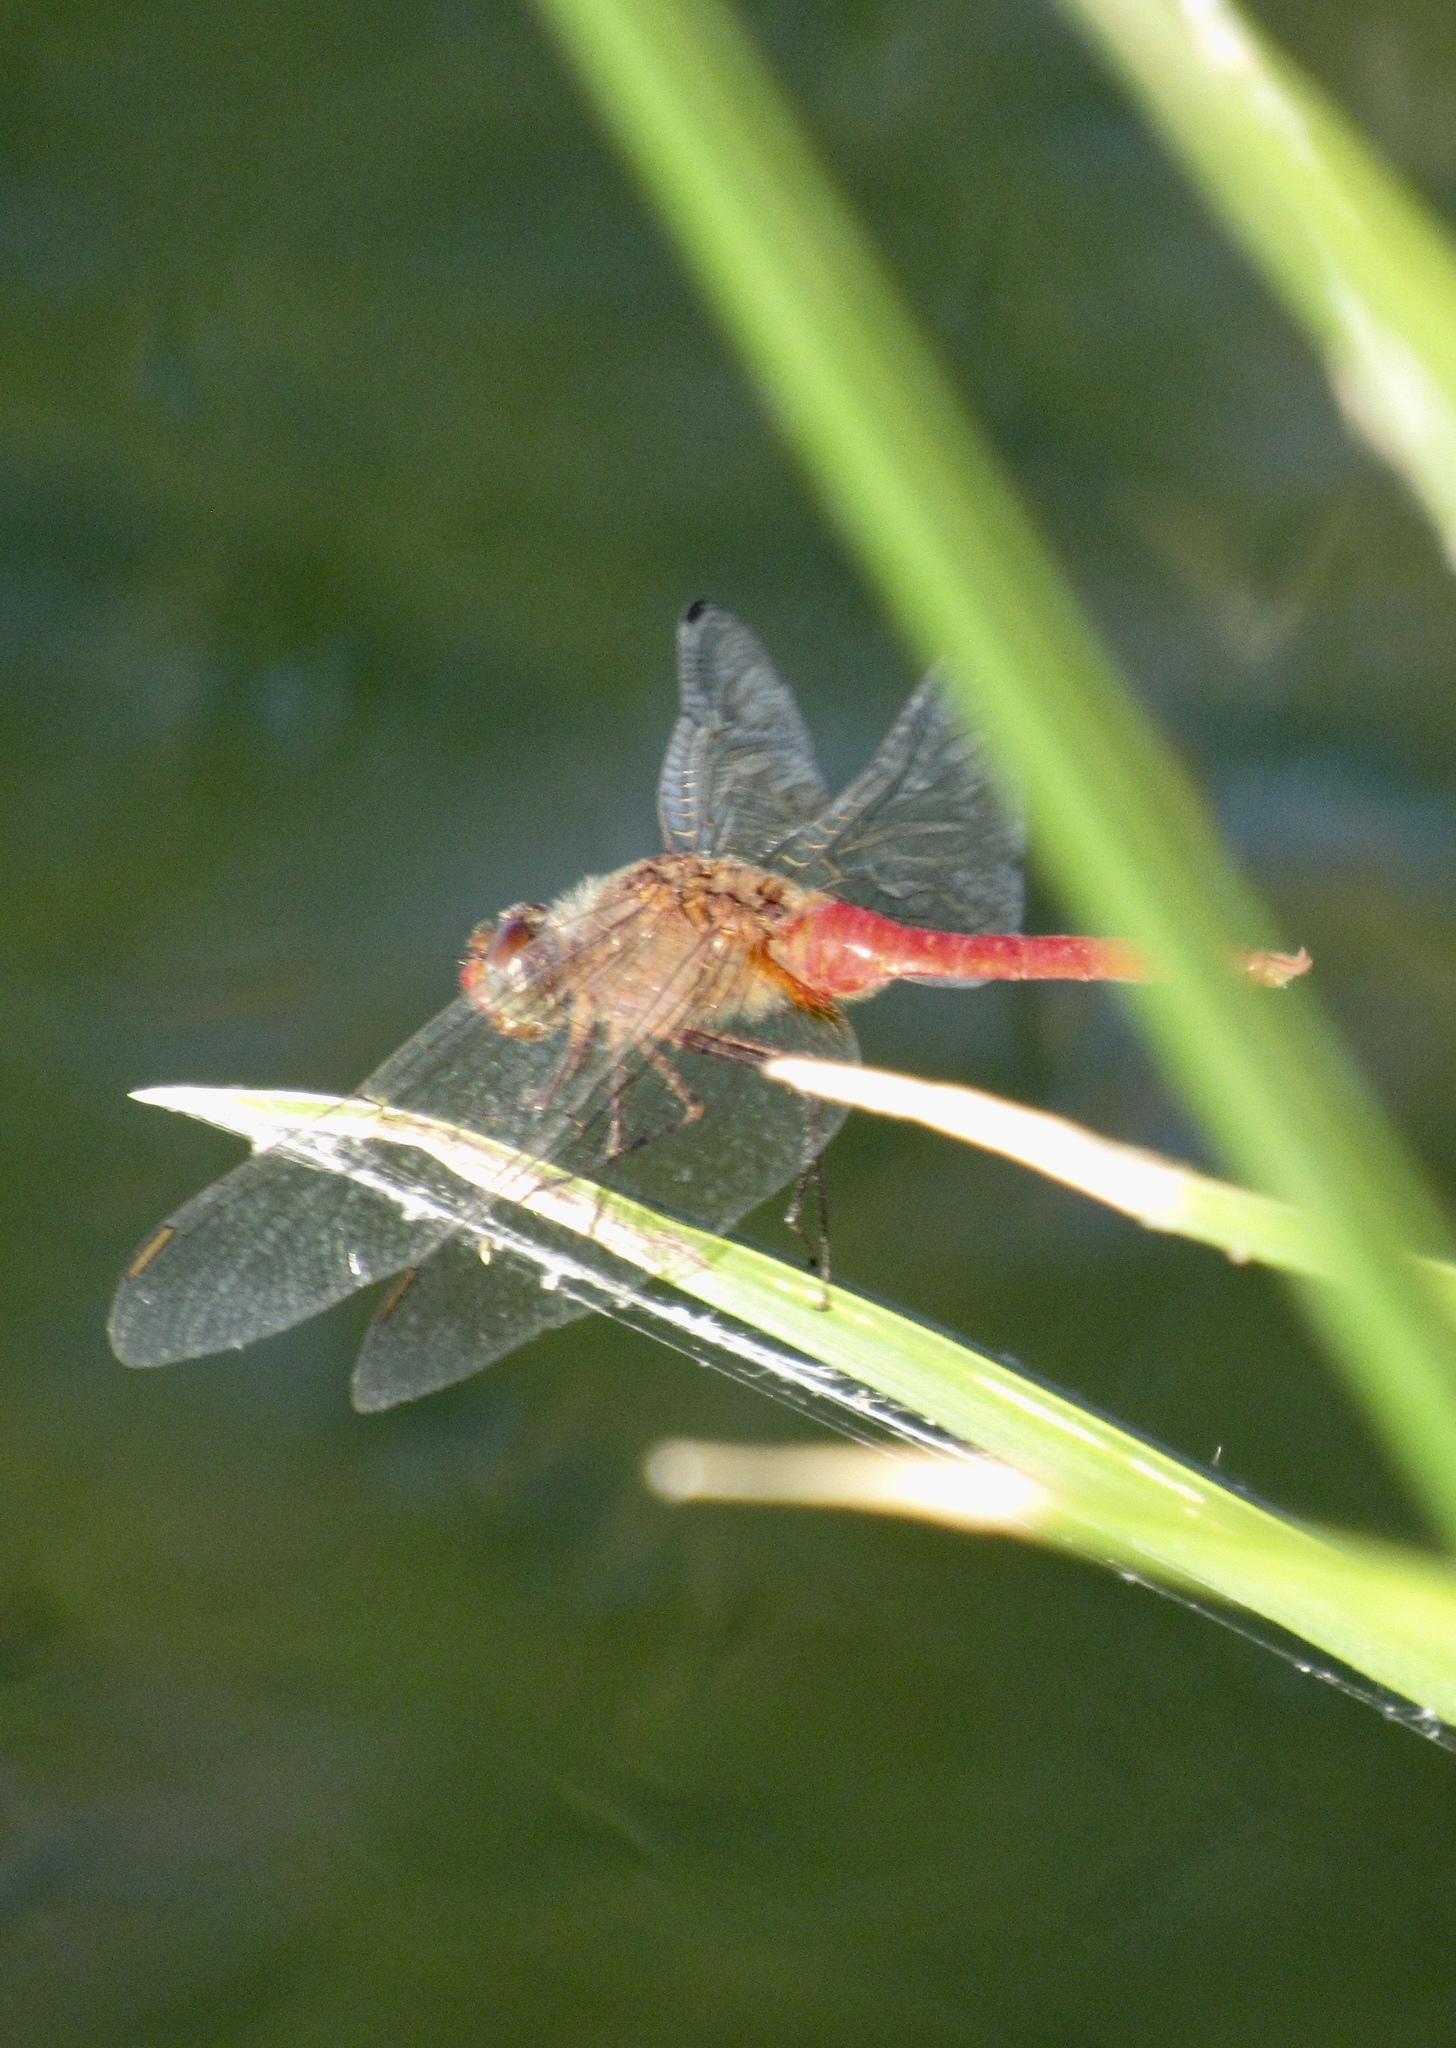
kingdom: Animalia
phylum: Arthropoda
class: Insecta
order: Odonata
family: Libellulidae
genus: Brachymesia
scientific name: Brachymesia furcata
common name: Red-taled pennant
